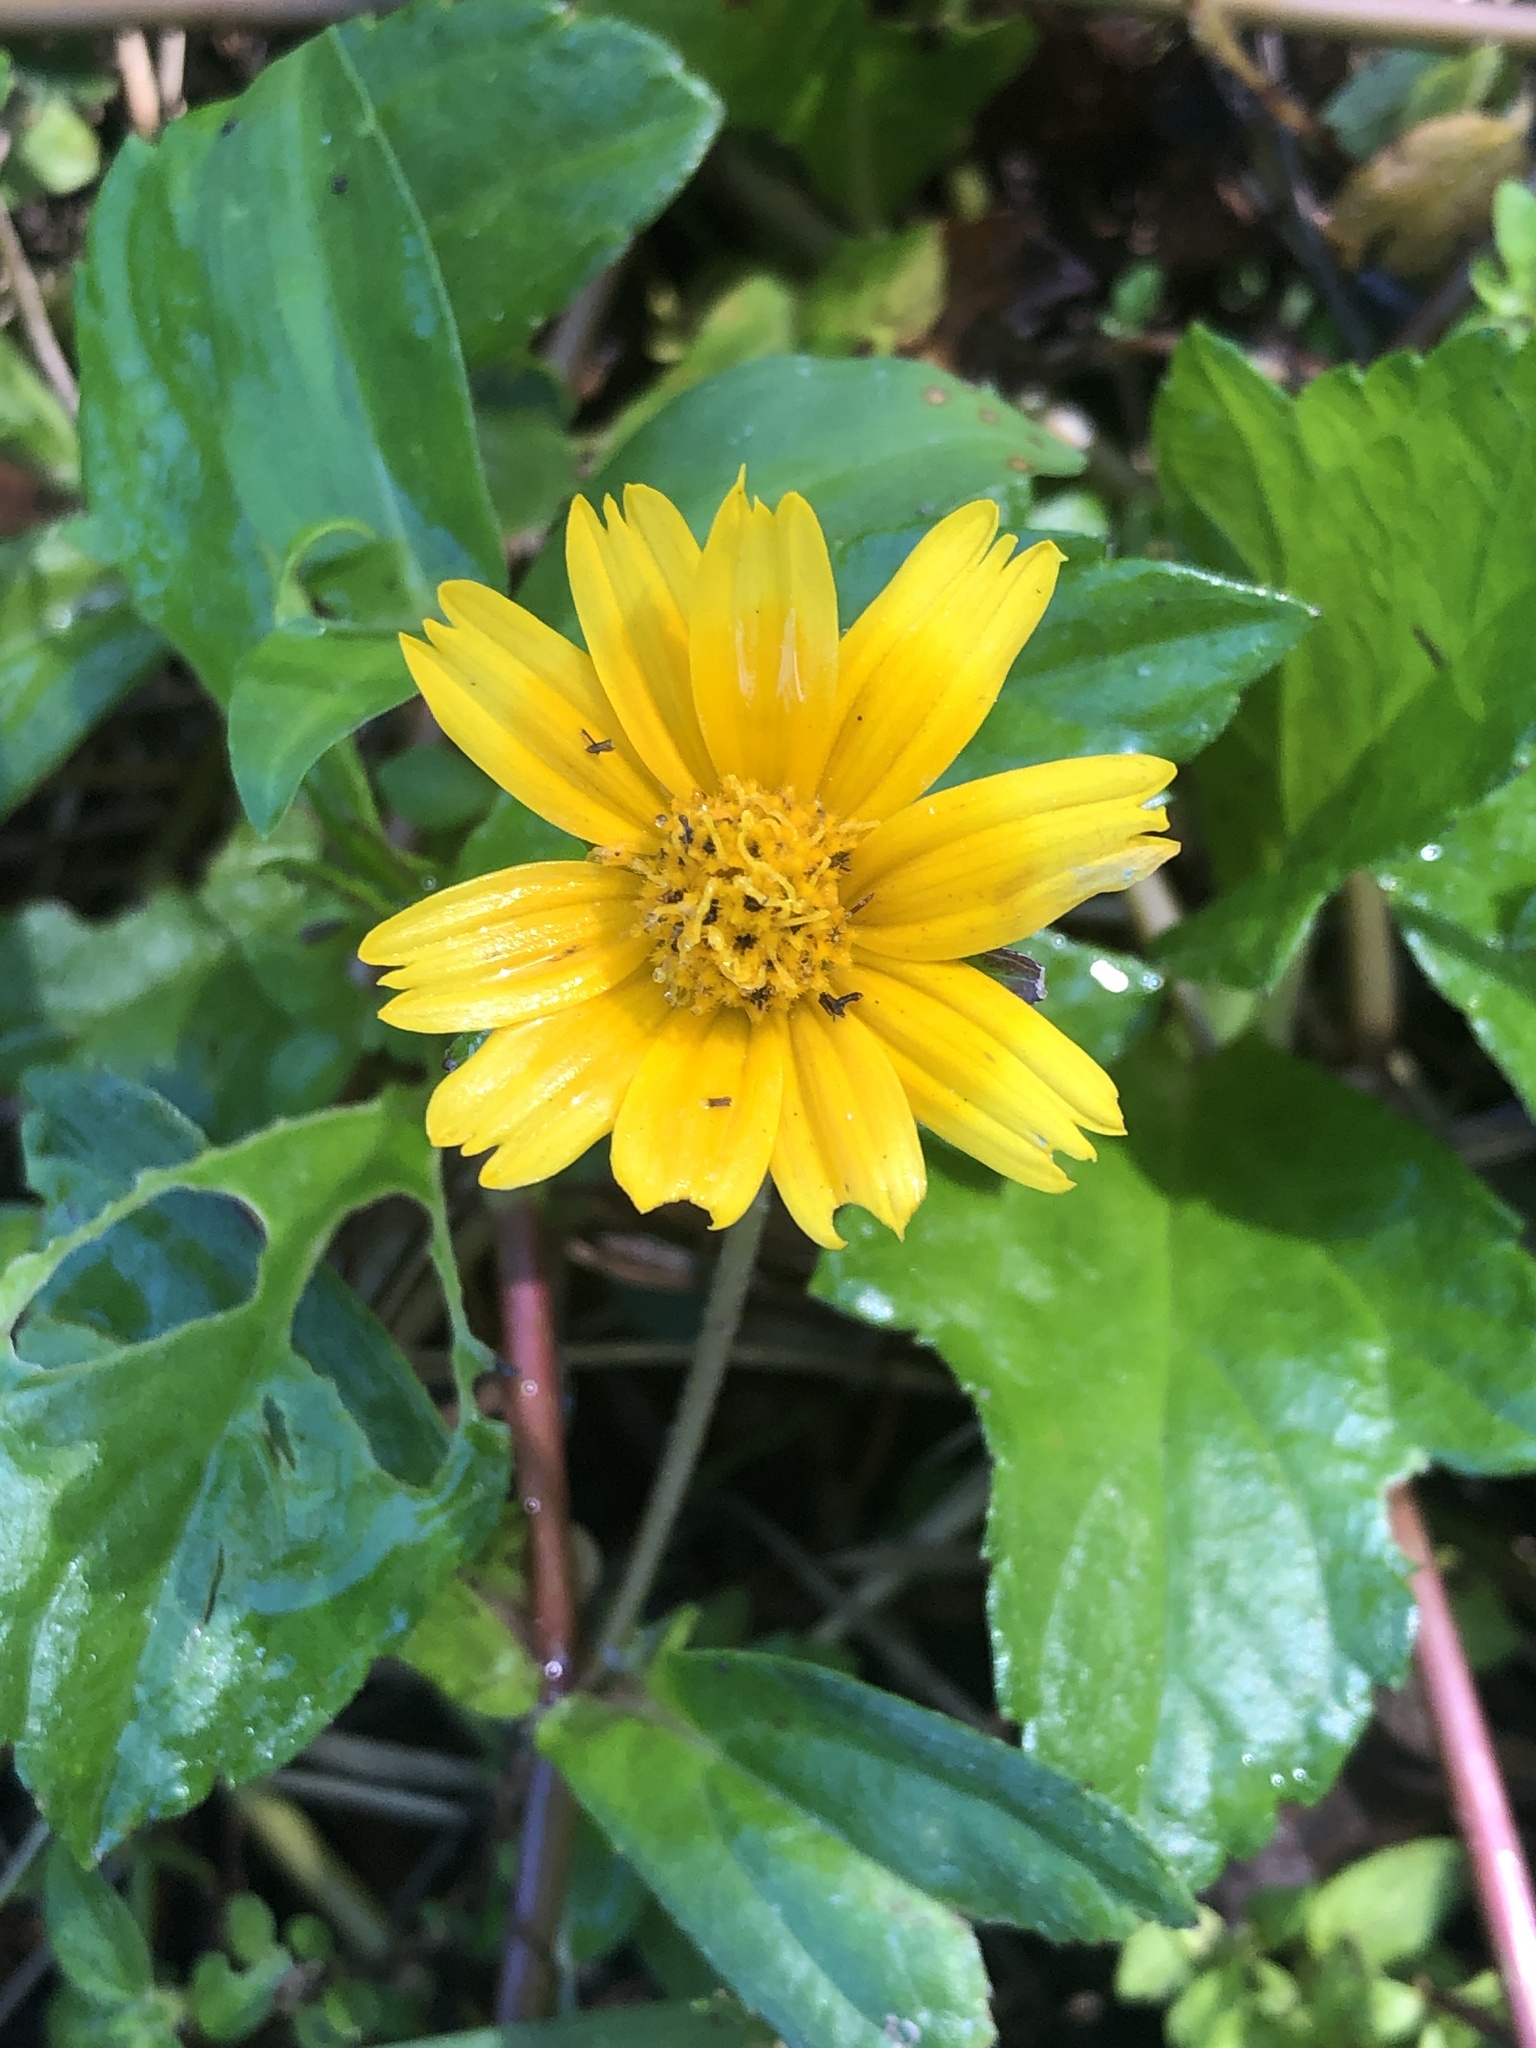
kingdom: Plantae
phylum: Tracheophyta
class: Magnoliopsida
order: Asterales
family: Asteraceae
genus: Sphagneticola
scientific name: Sphagneticola trilobata
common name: Bay biscayne creeping-oxeye
